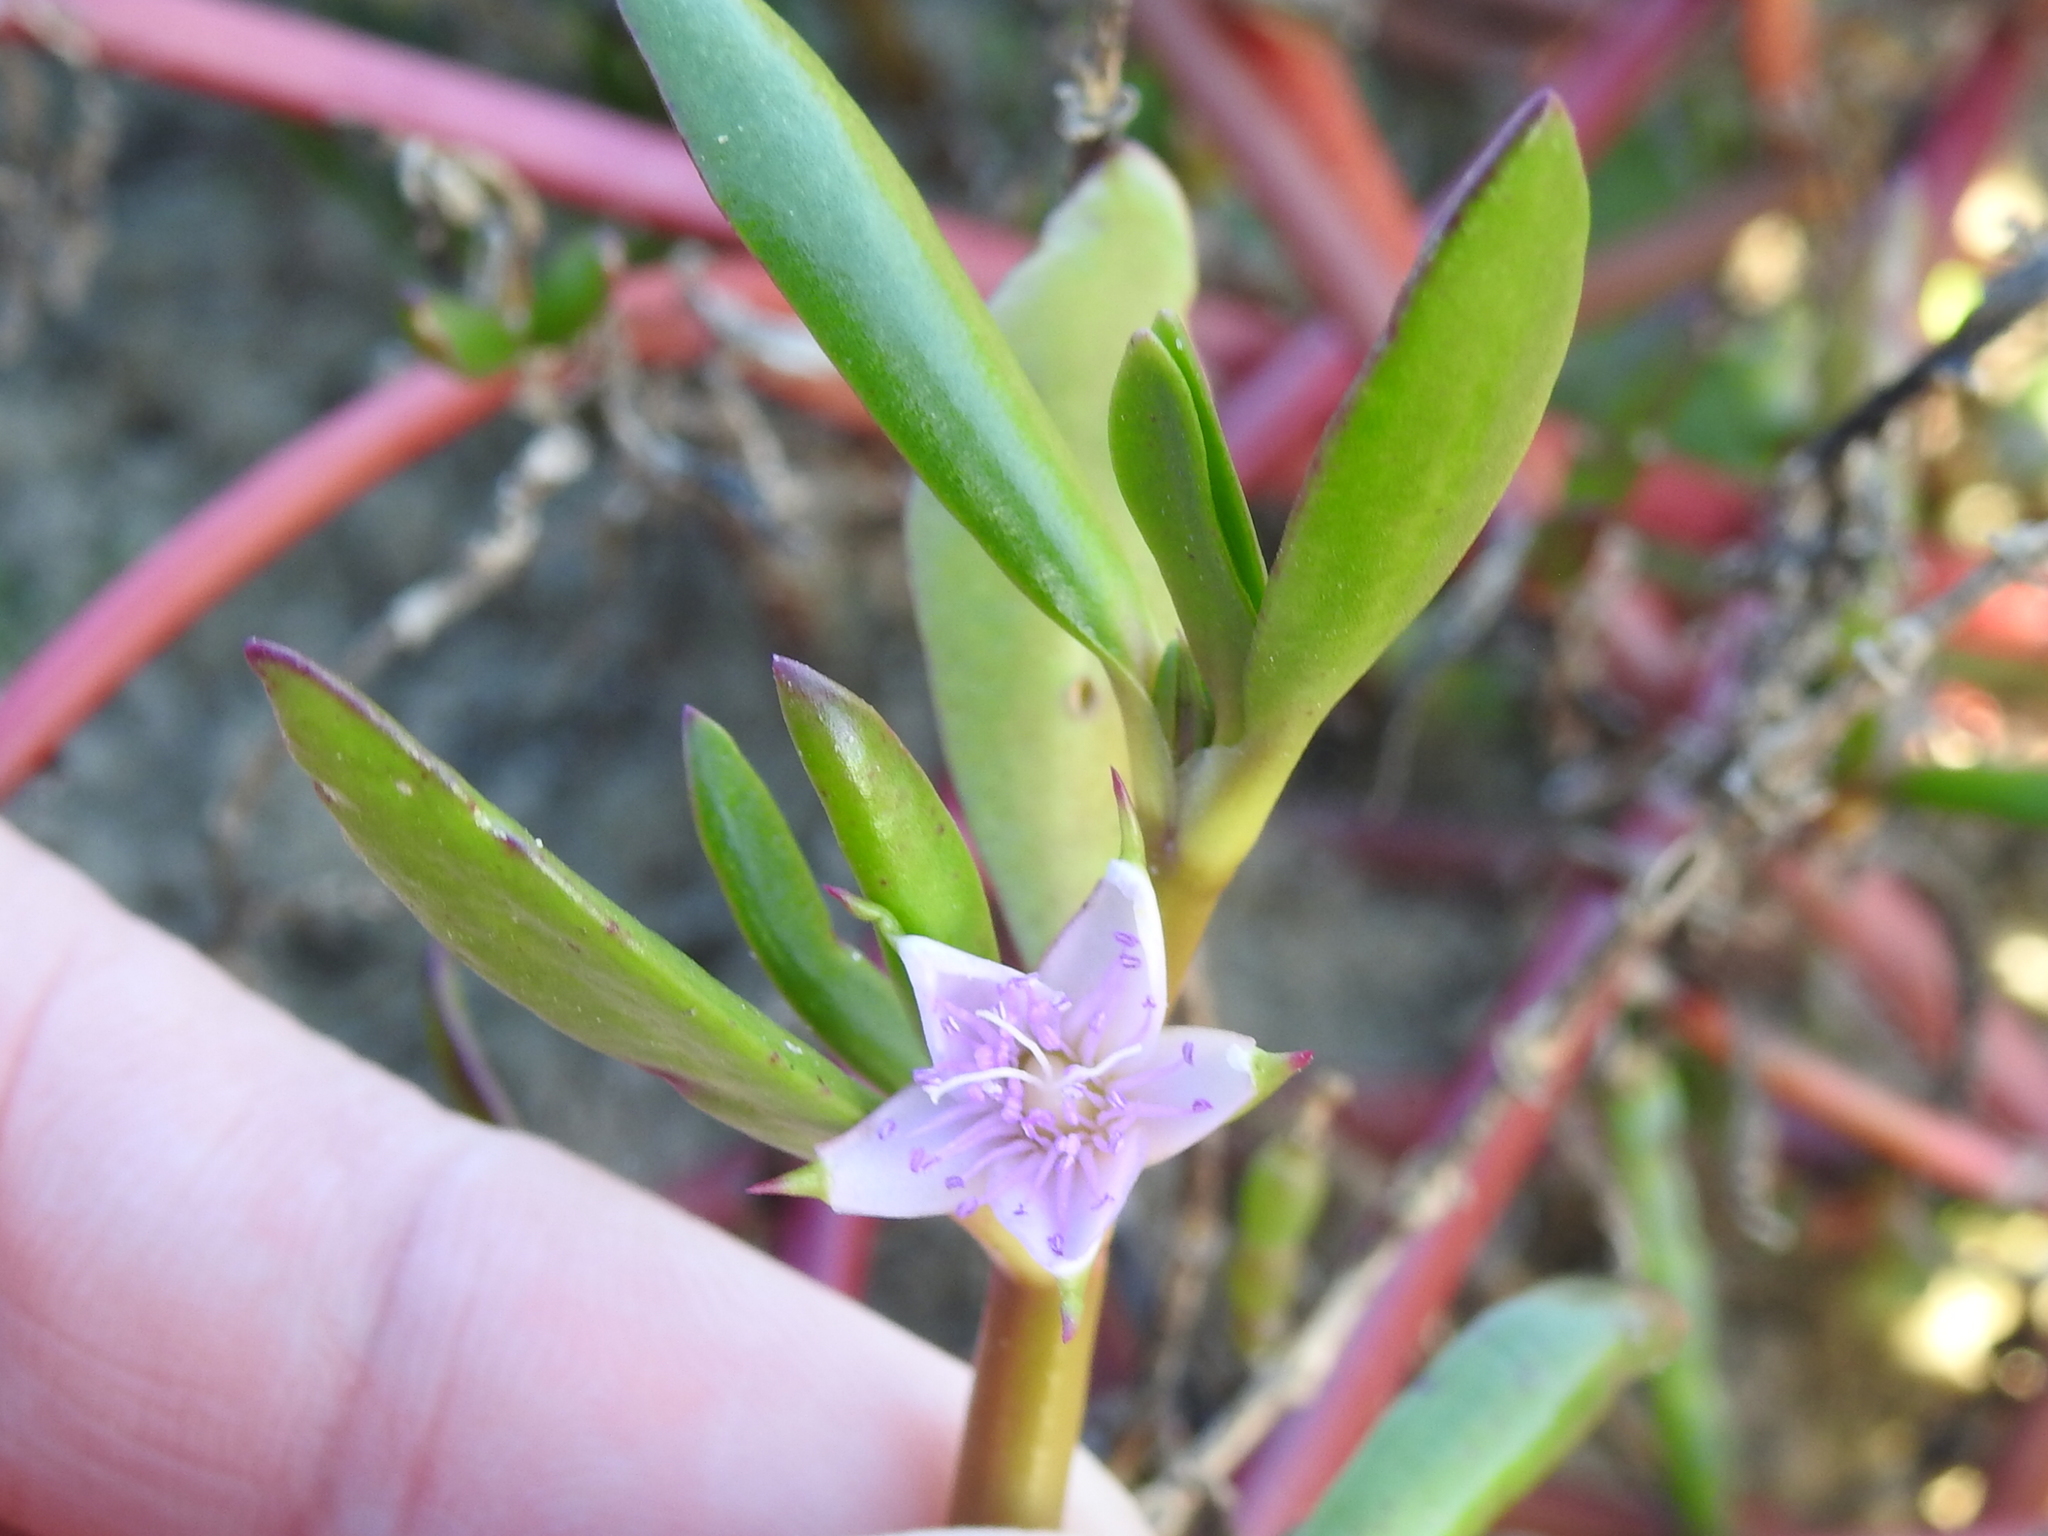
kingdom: Plantae
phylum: Tracheophyta
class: Magnoliopsida
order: Caryophyllales
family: Aizoaceae
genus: Sesuvium
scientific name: Sesuvium portulacastrum
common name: Sea-purslane
